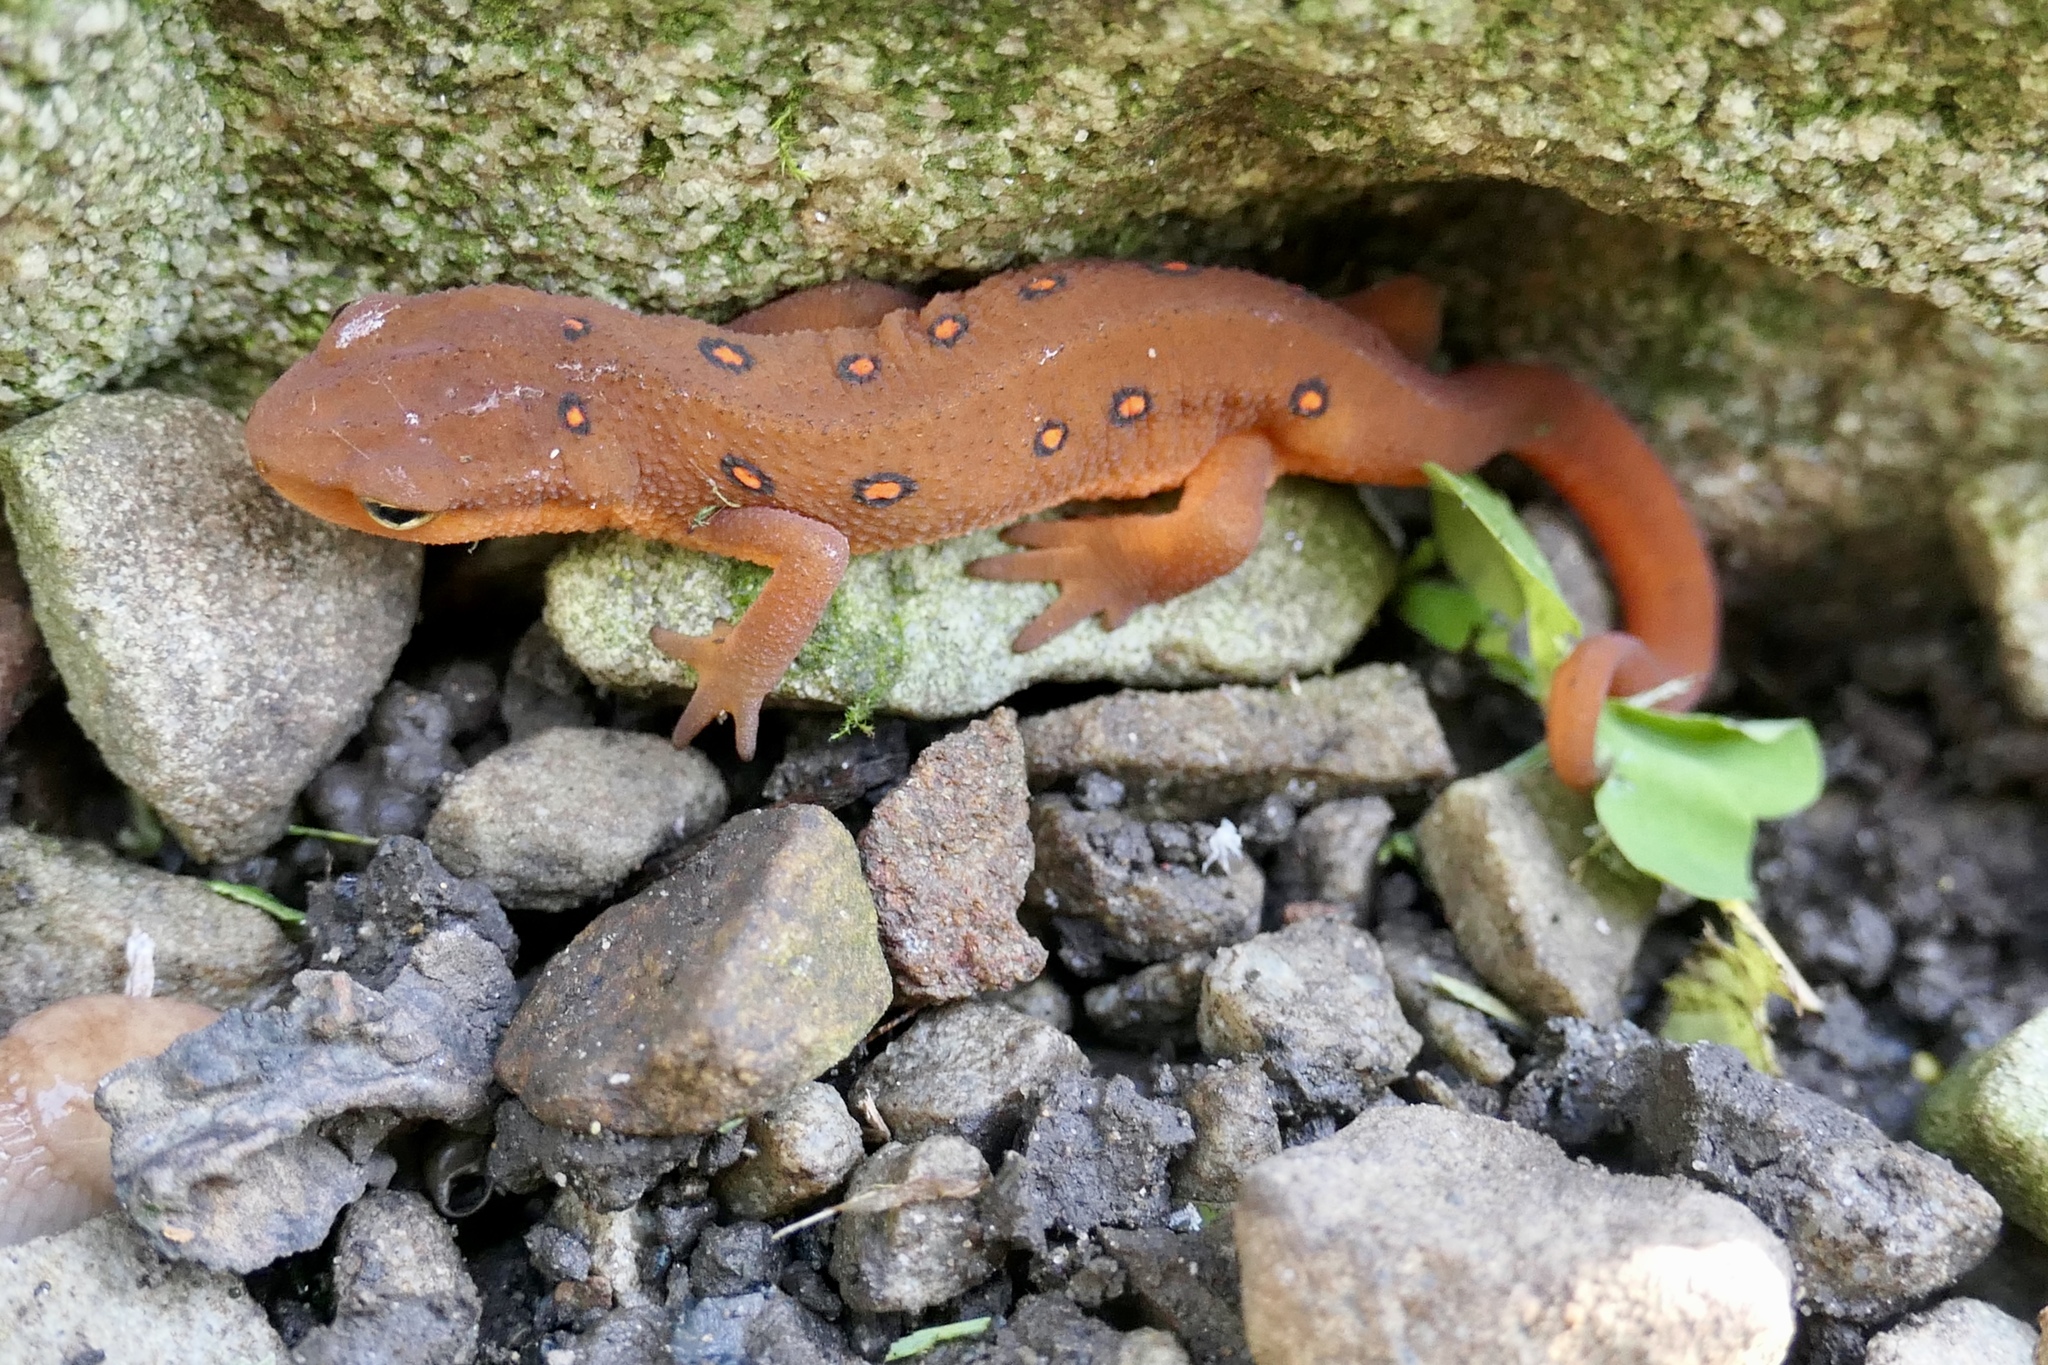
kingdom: Animalia
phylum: Chordata
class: Amphibia
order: Caudata
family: Salamandridae
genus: Notophthalmus
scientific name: Notophthalmus viridescens
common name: Eastern newt
